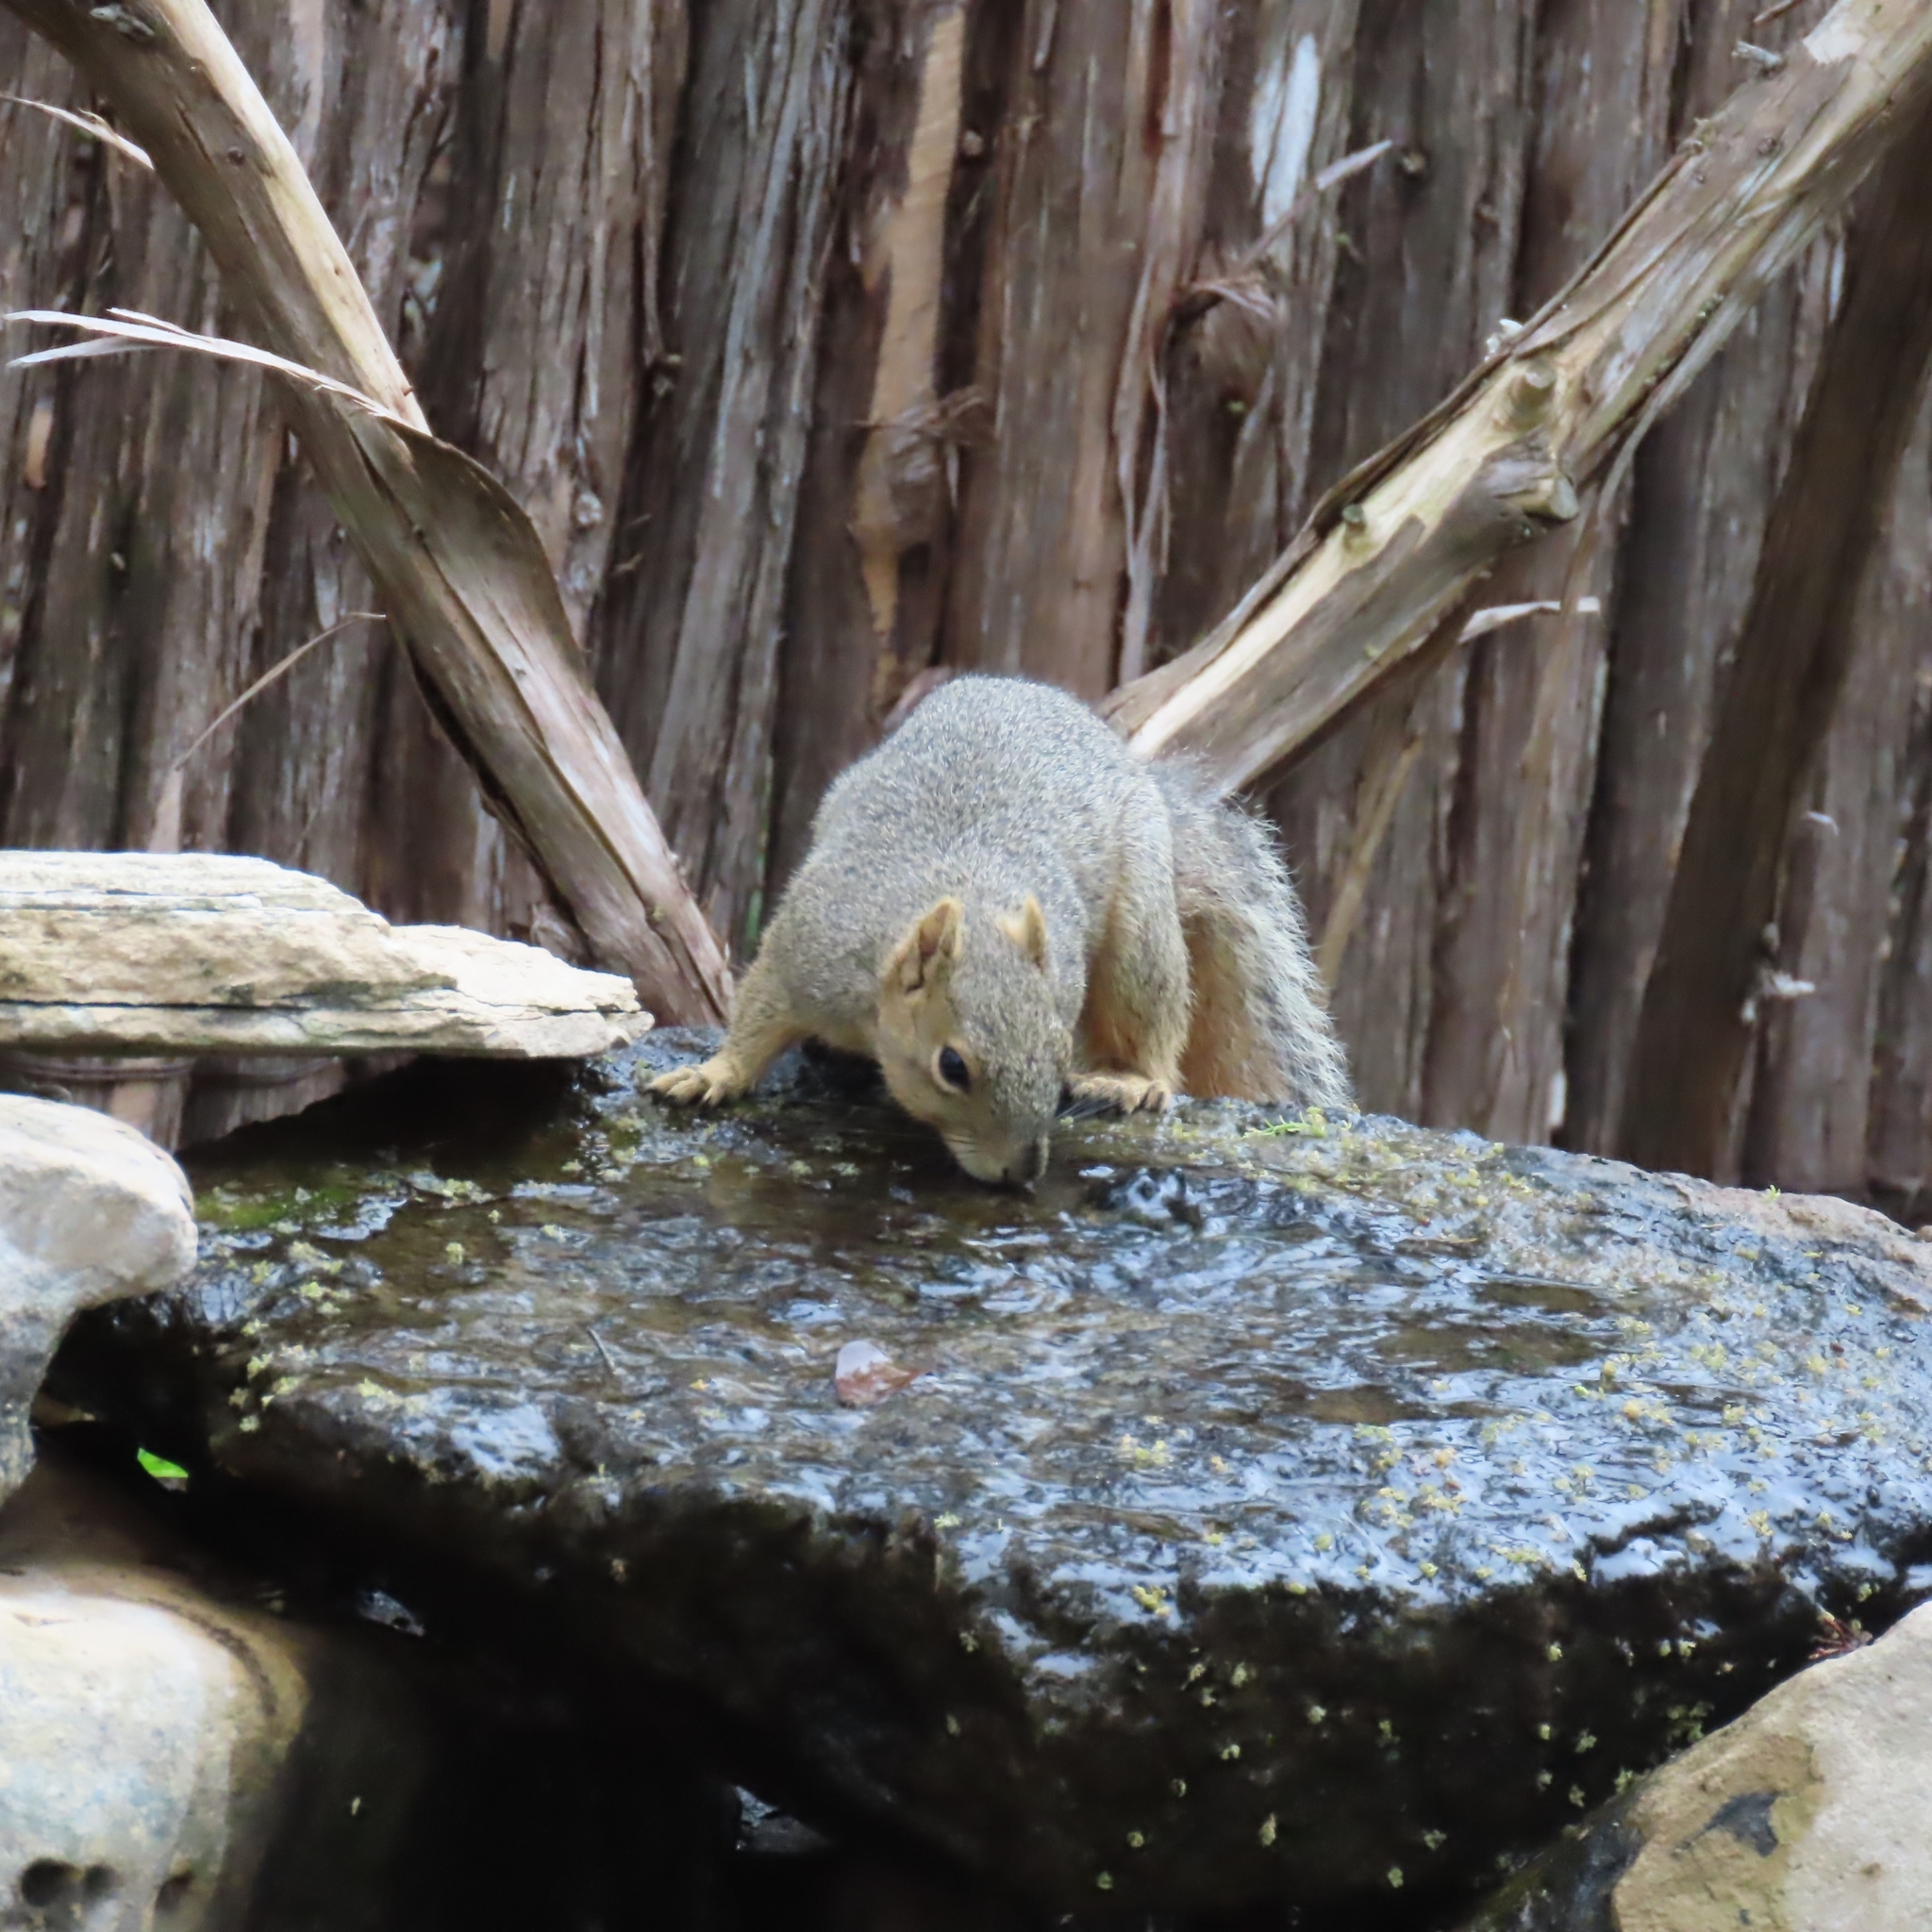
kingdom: Animalia
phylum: Chordata
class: Mammalia
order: Rodentia
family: Sciuridae
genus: Sciurus
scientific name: Sciurus niger
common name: Fox squirrel
